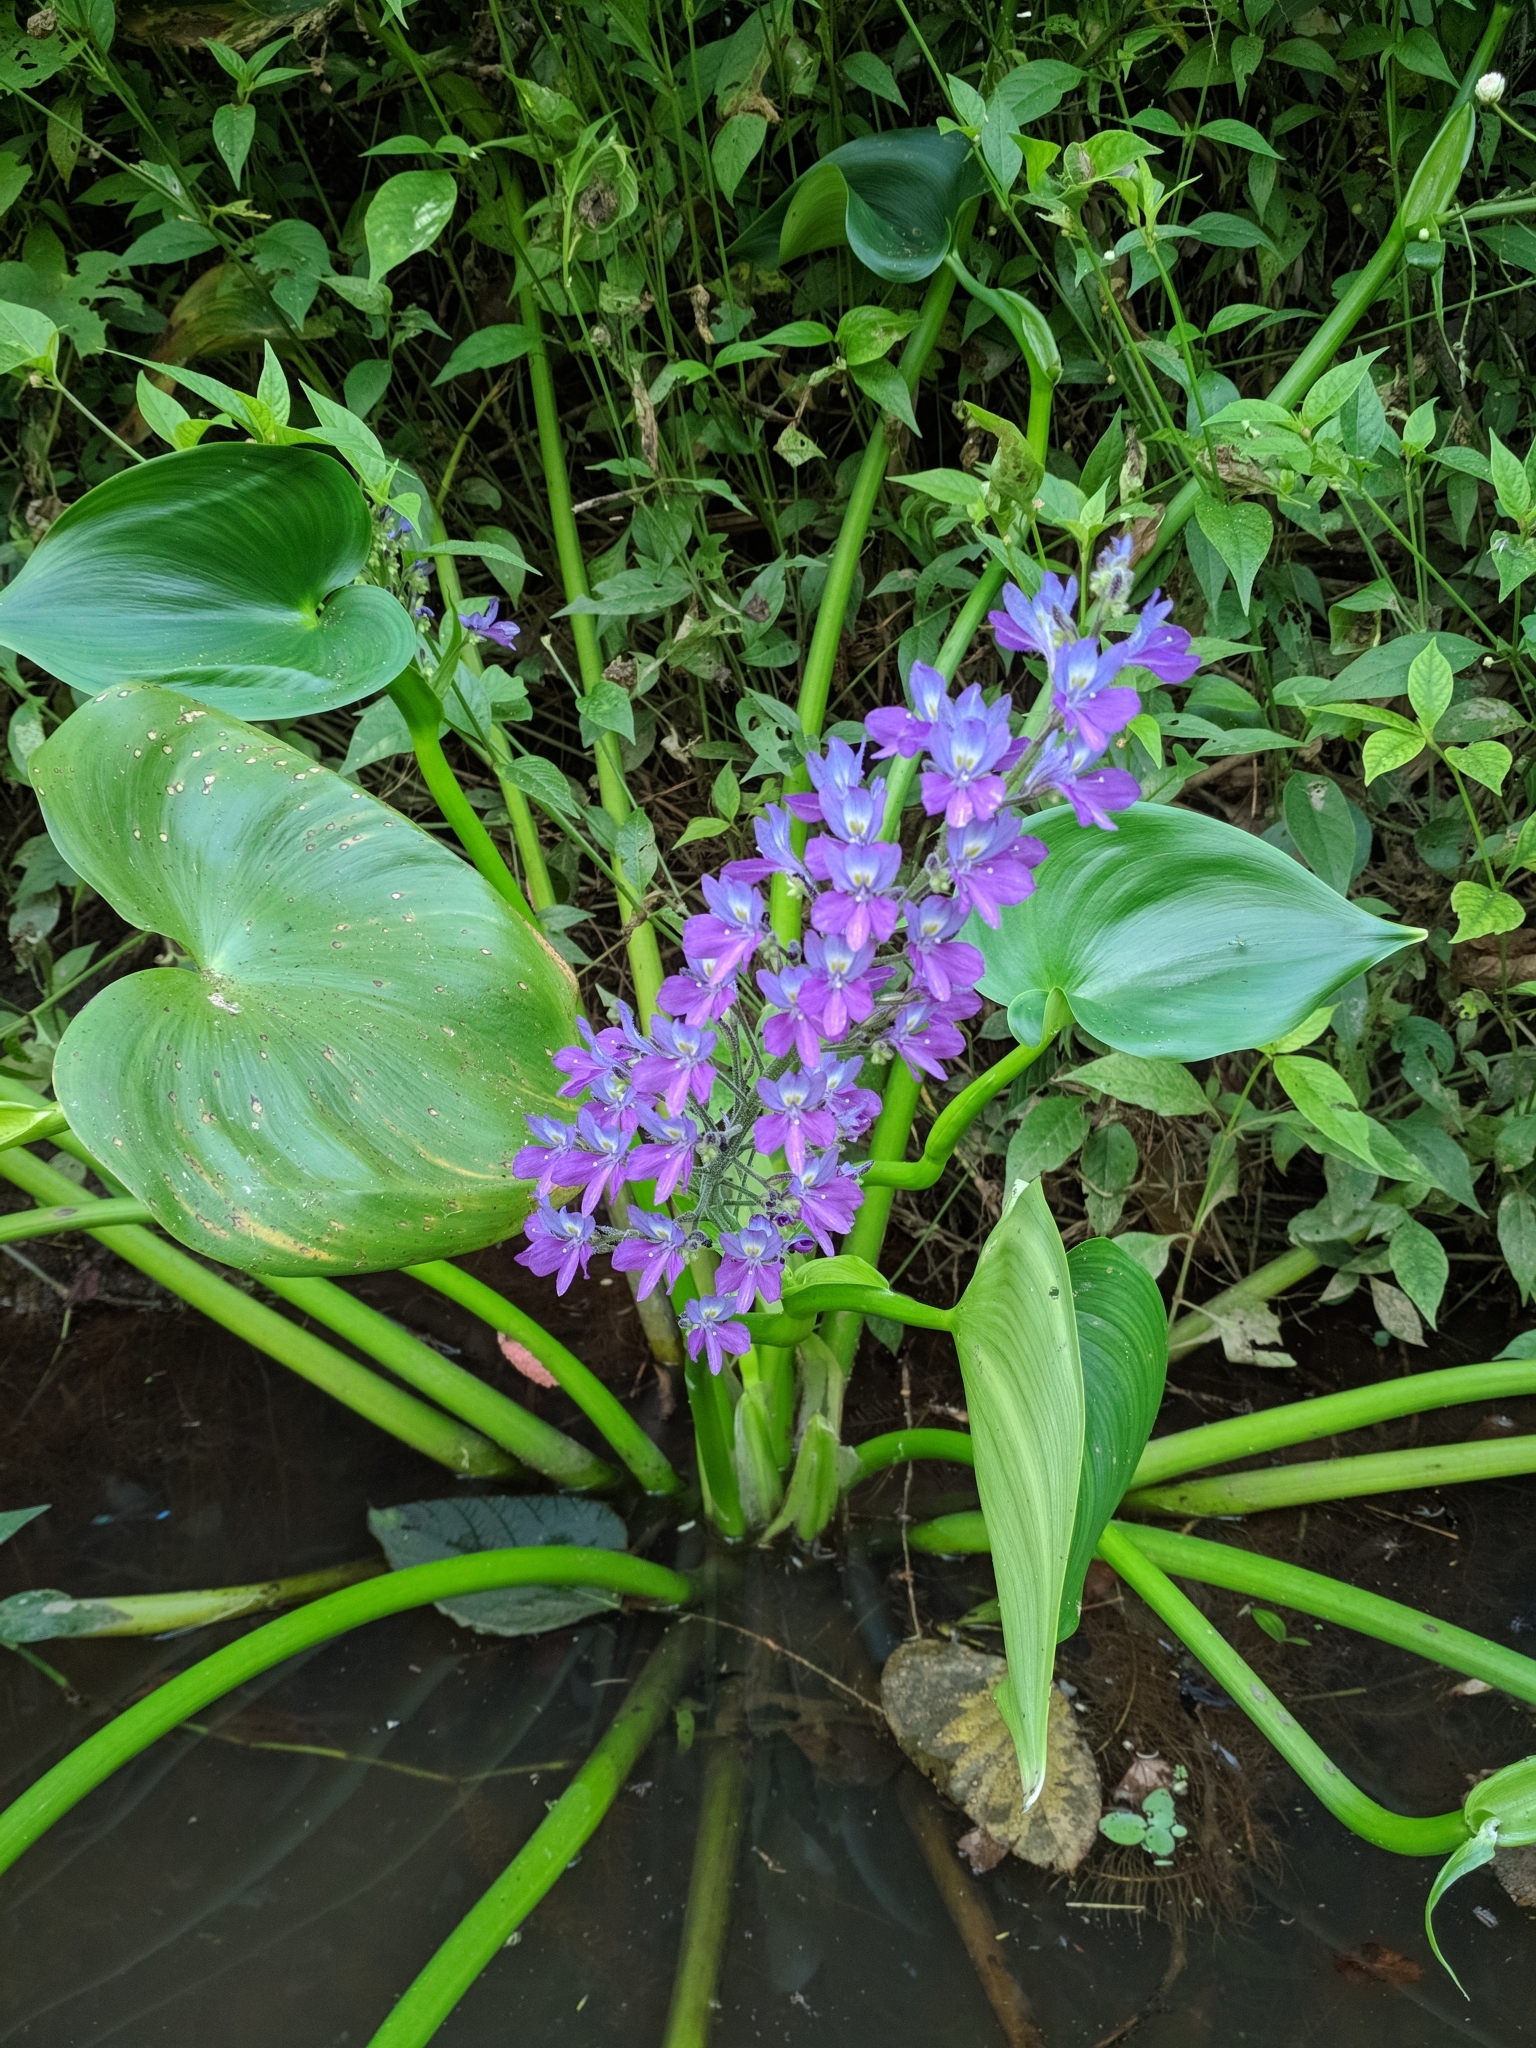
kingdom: Plantae
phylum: Tracheophyta
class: Liliopsida
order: Commelinales
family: Pontederiaceae
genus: Pontederia
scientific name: Pontederia paniculata
